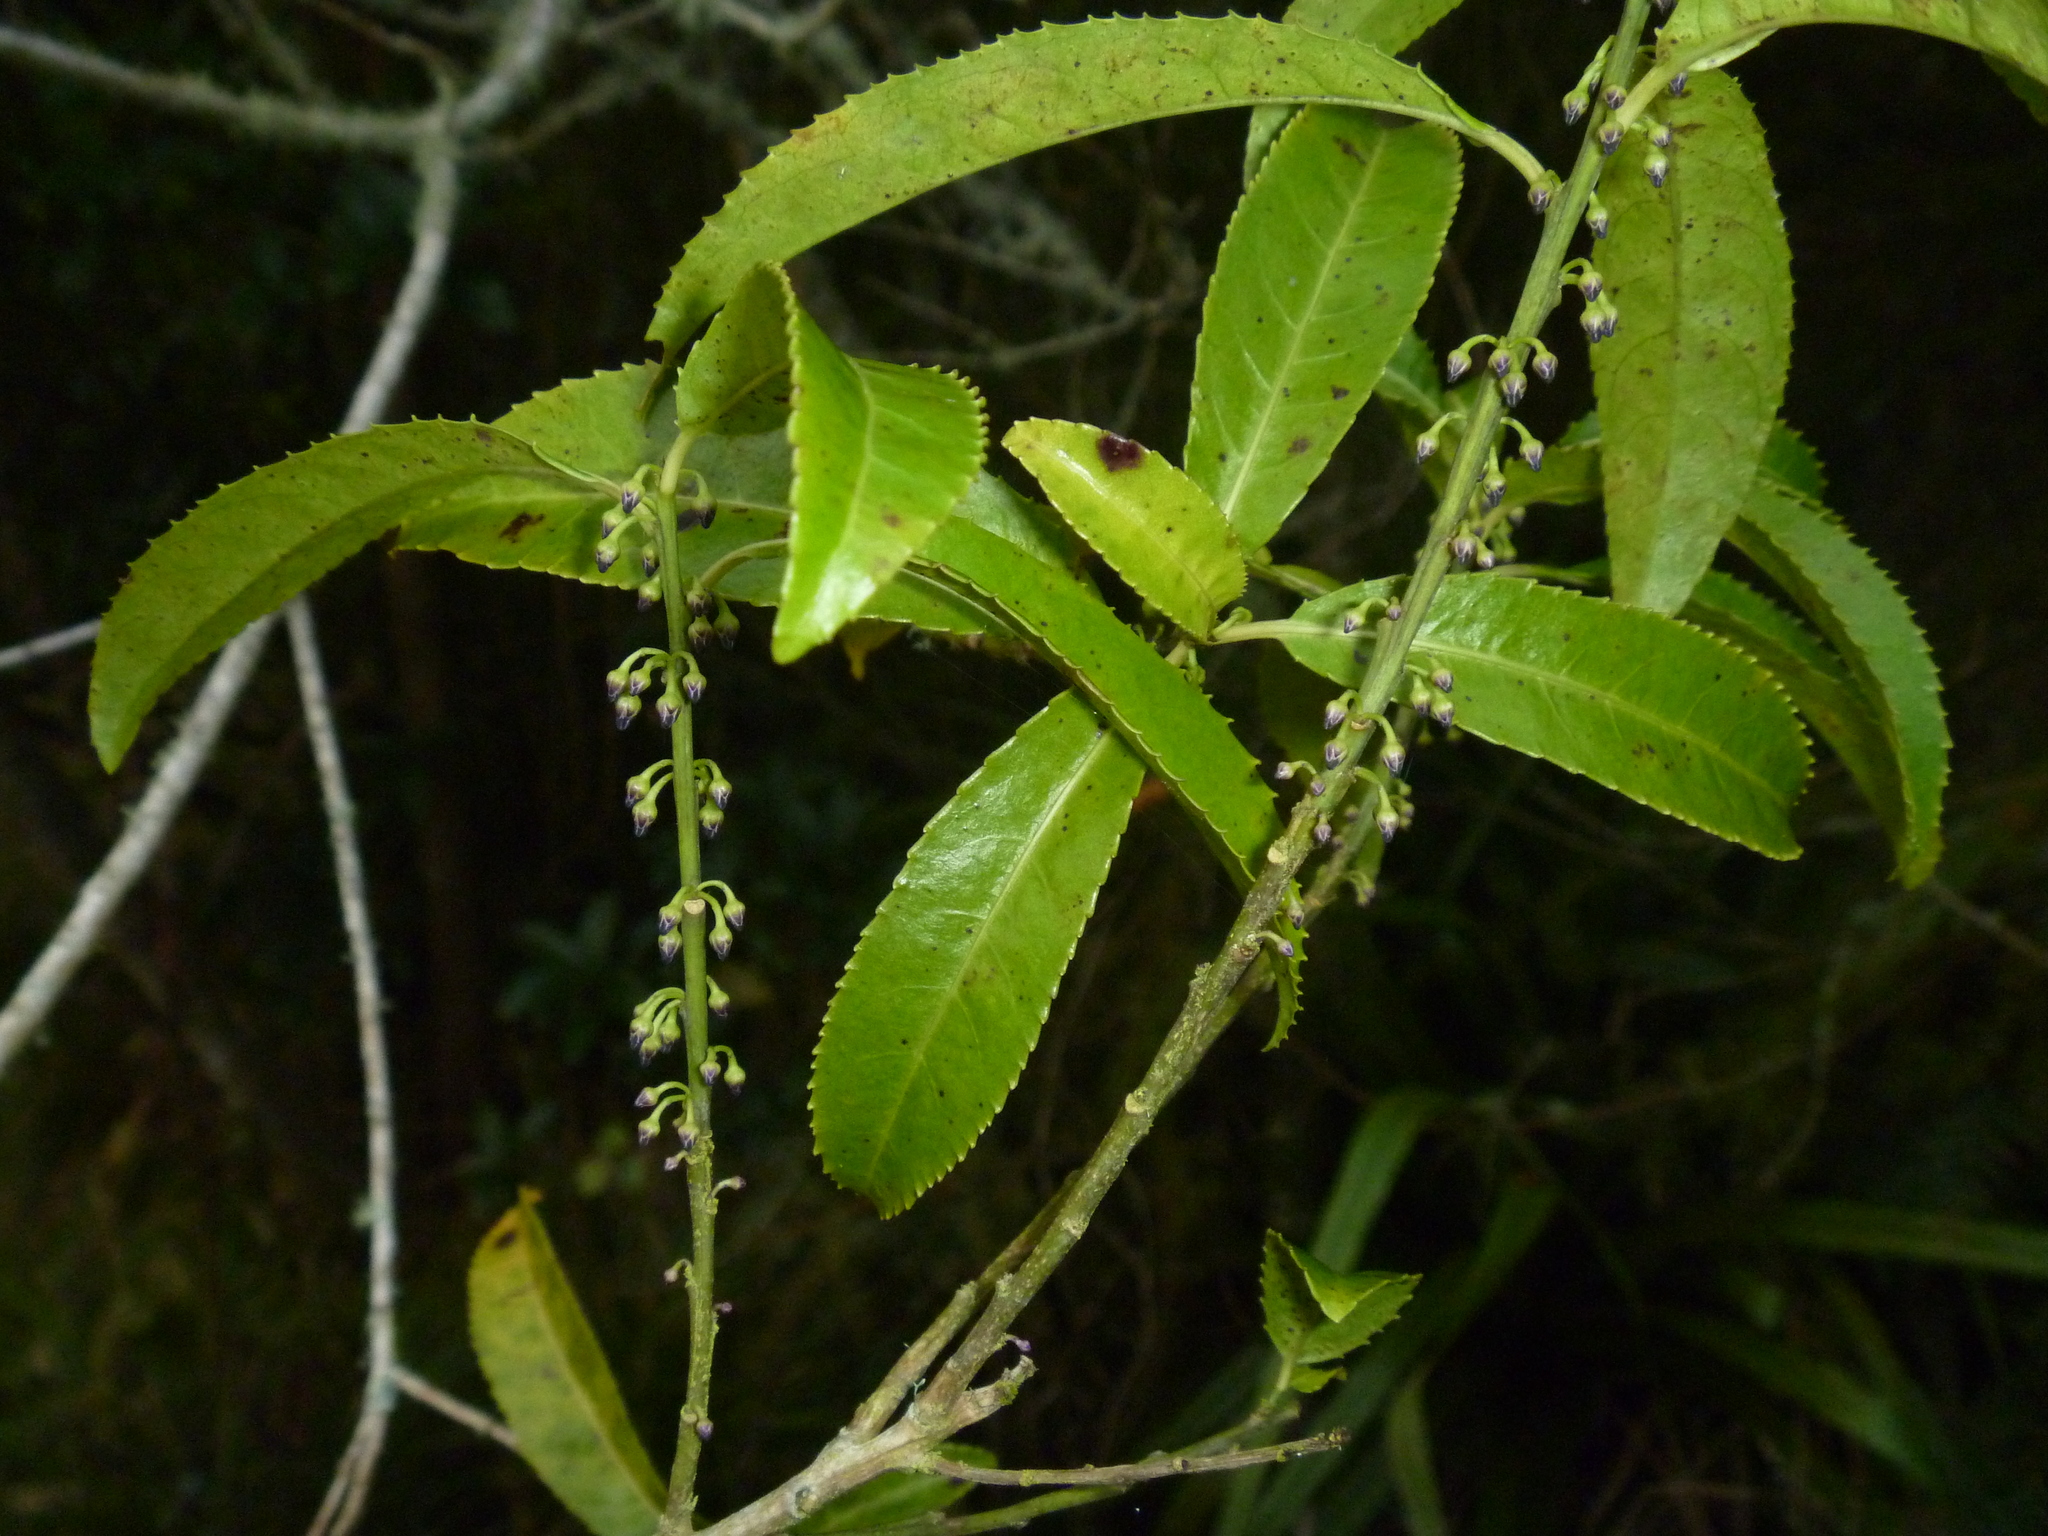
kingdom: Plantae
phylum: Tracheophyta
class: Magnoliopsida
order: Malpighiales
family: Violaceae
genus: Melicytus
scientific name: Melicytus lanceolatus
